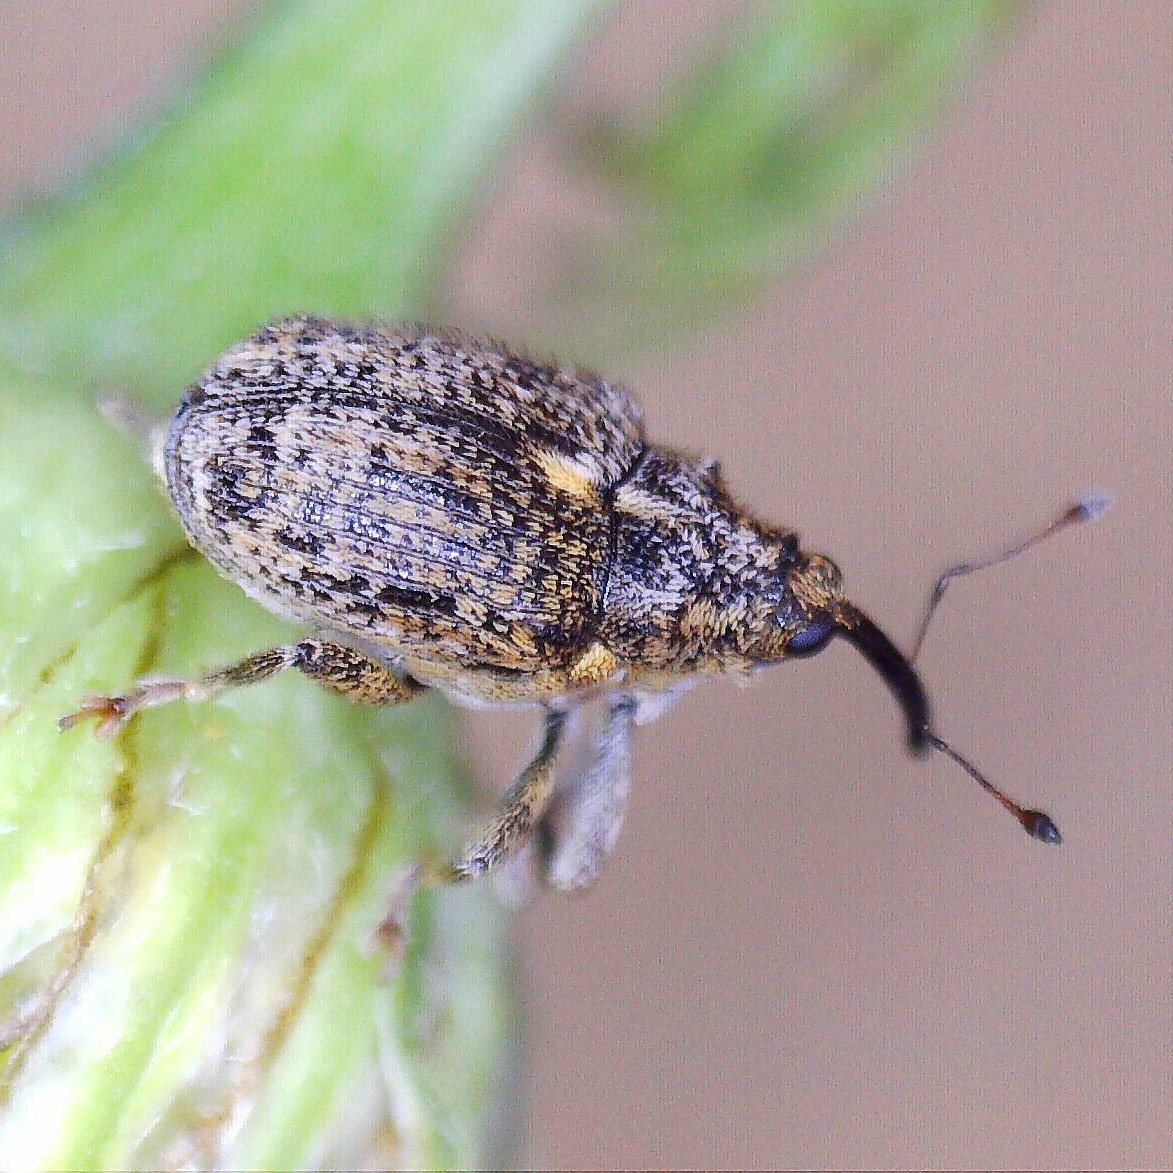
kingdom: Animalia
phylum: Arthropoda
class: Insecta
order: Coleoptera
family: Curculionidae
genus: Ceutorhynchus
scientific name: Ceutorhynchus pallidactylus
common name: Cabbage stem weavil
